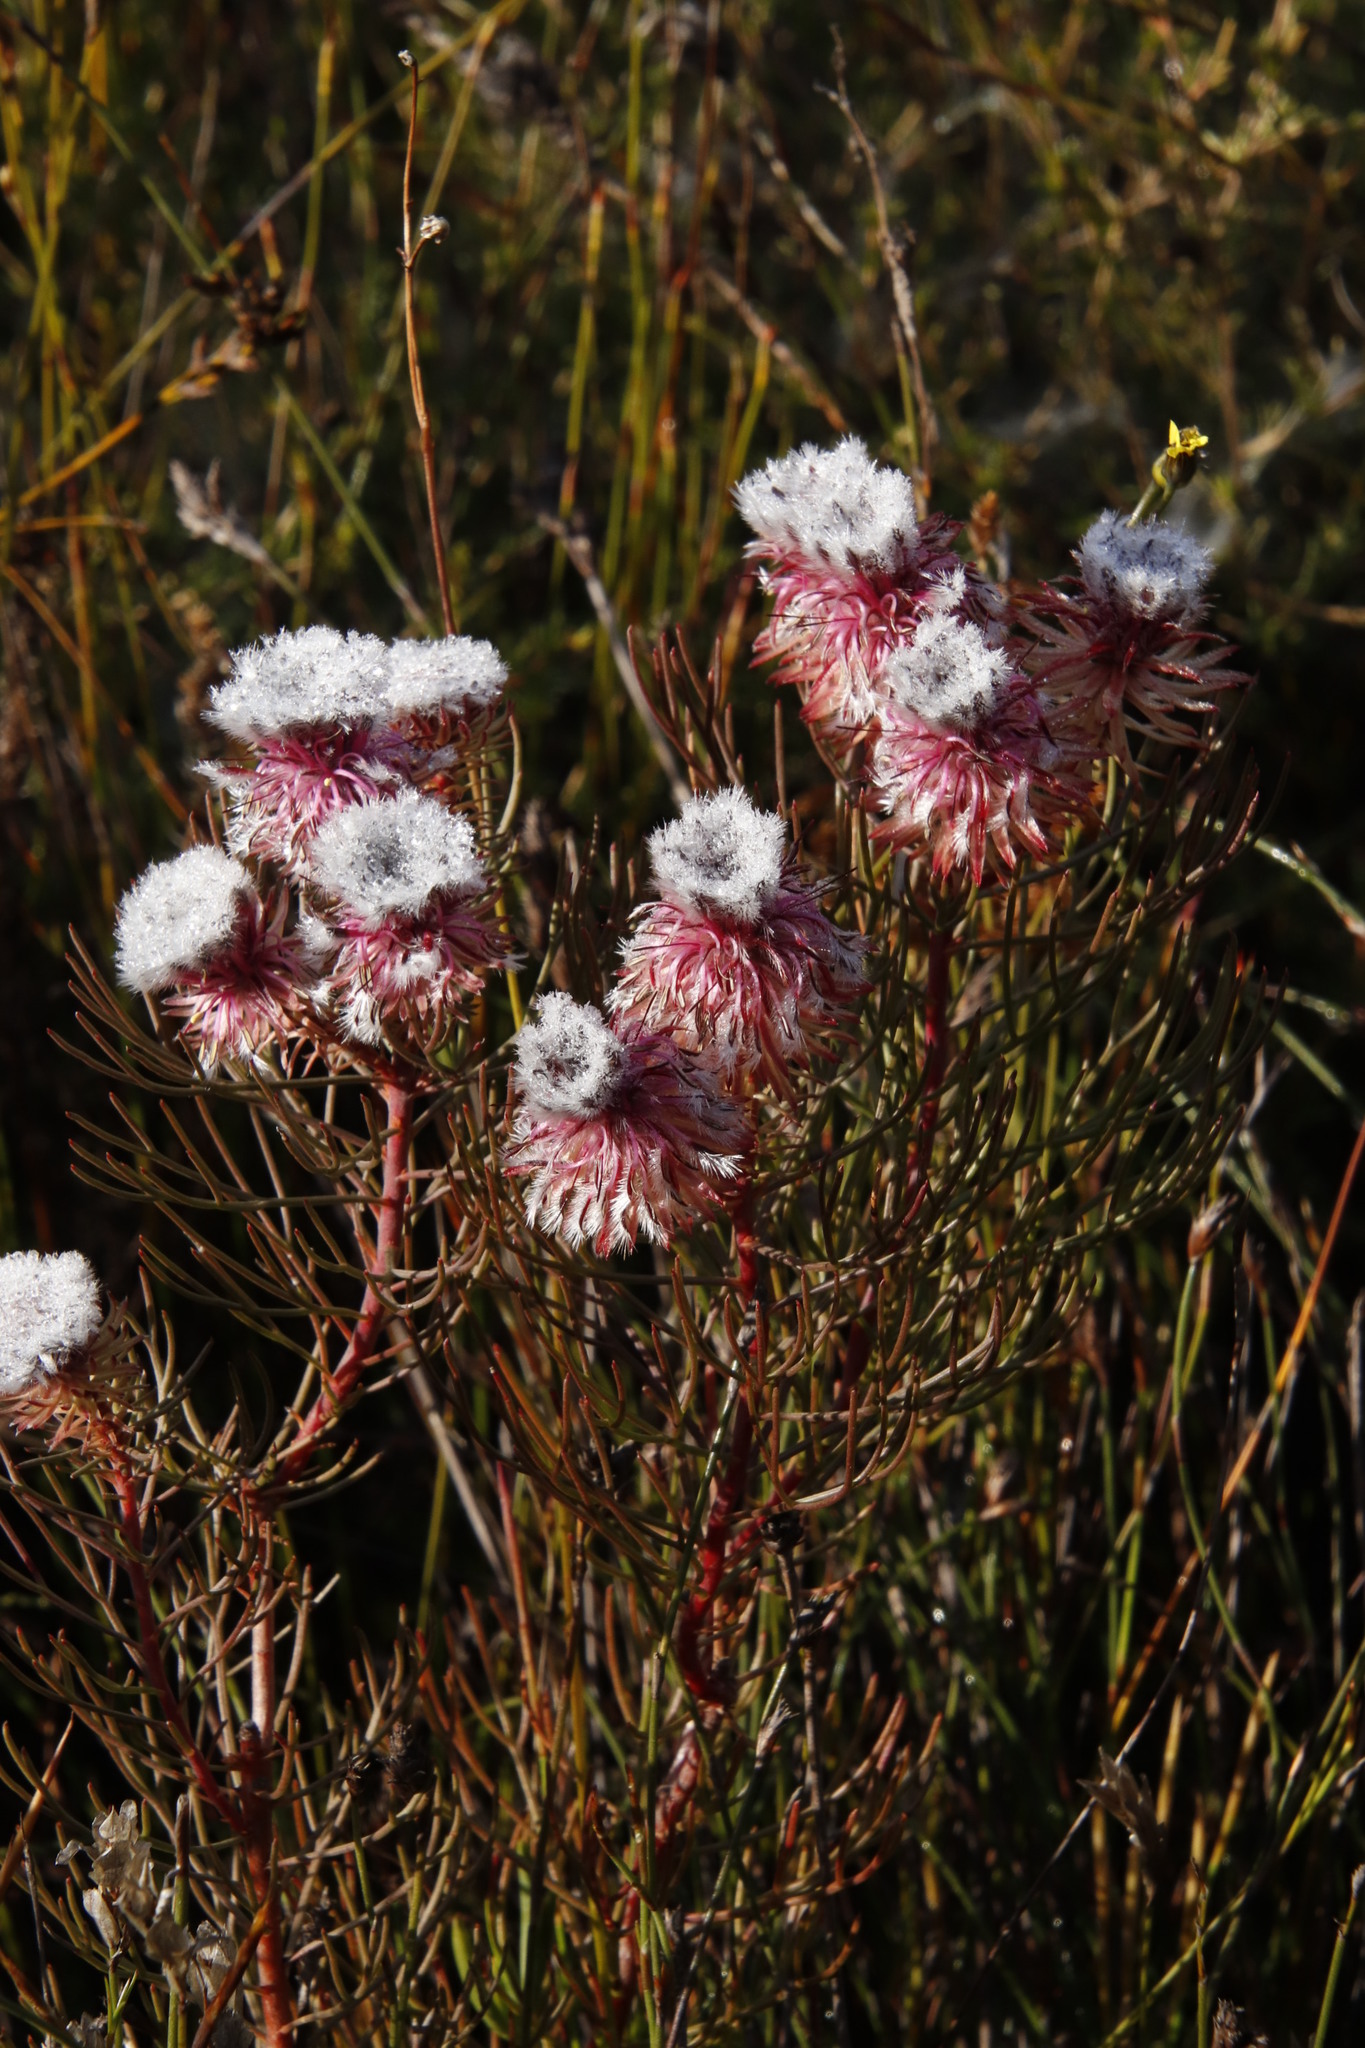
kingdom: Plantae
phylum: Tracheophyta
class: Magnoliopsida
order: Proteales
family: Proteaceae
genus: Serruria
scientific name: Serruria phylicoides
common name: Bearded spiderhead
